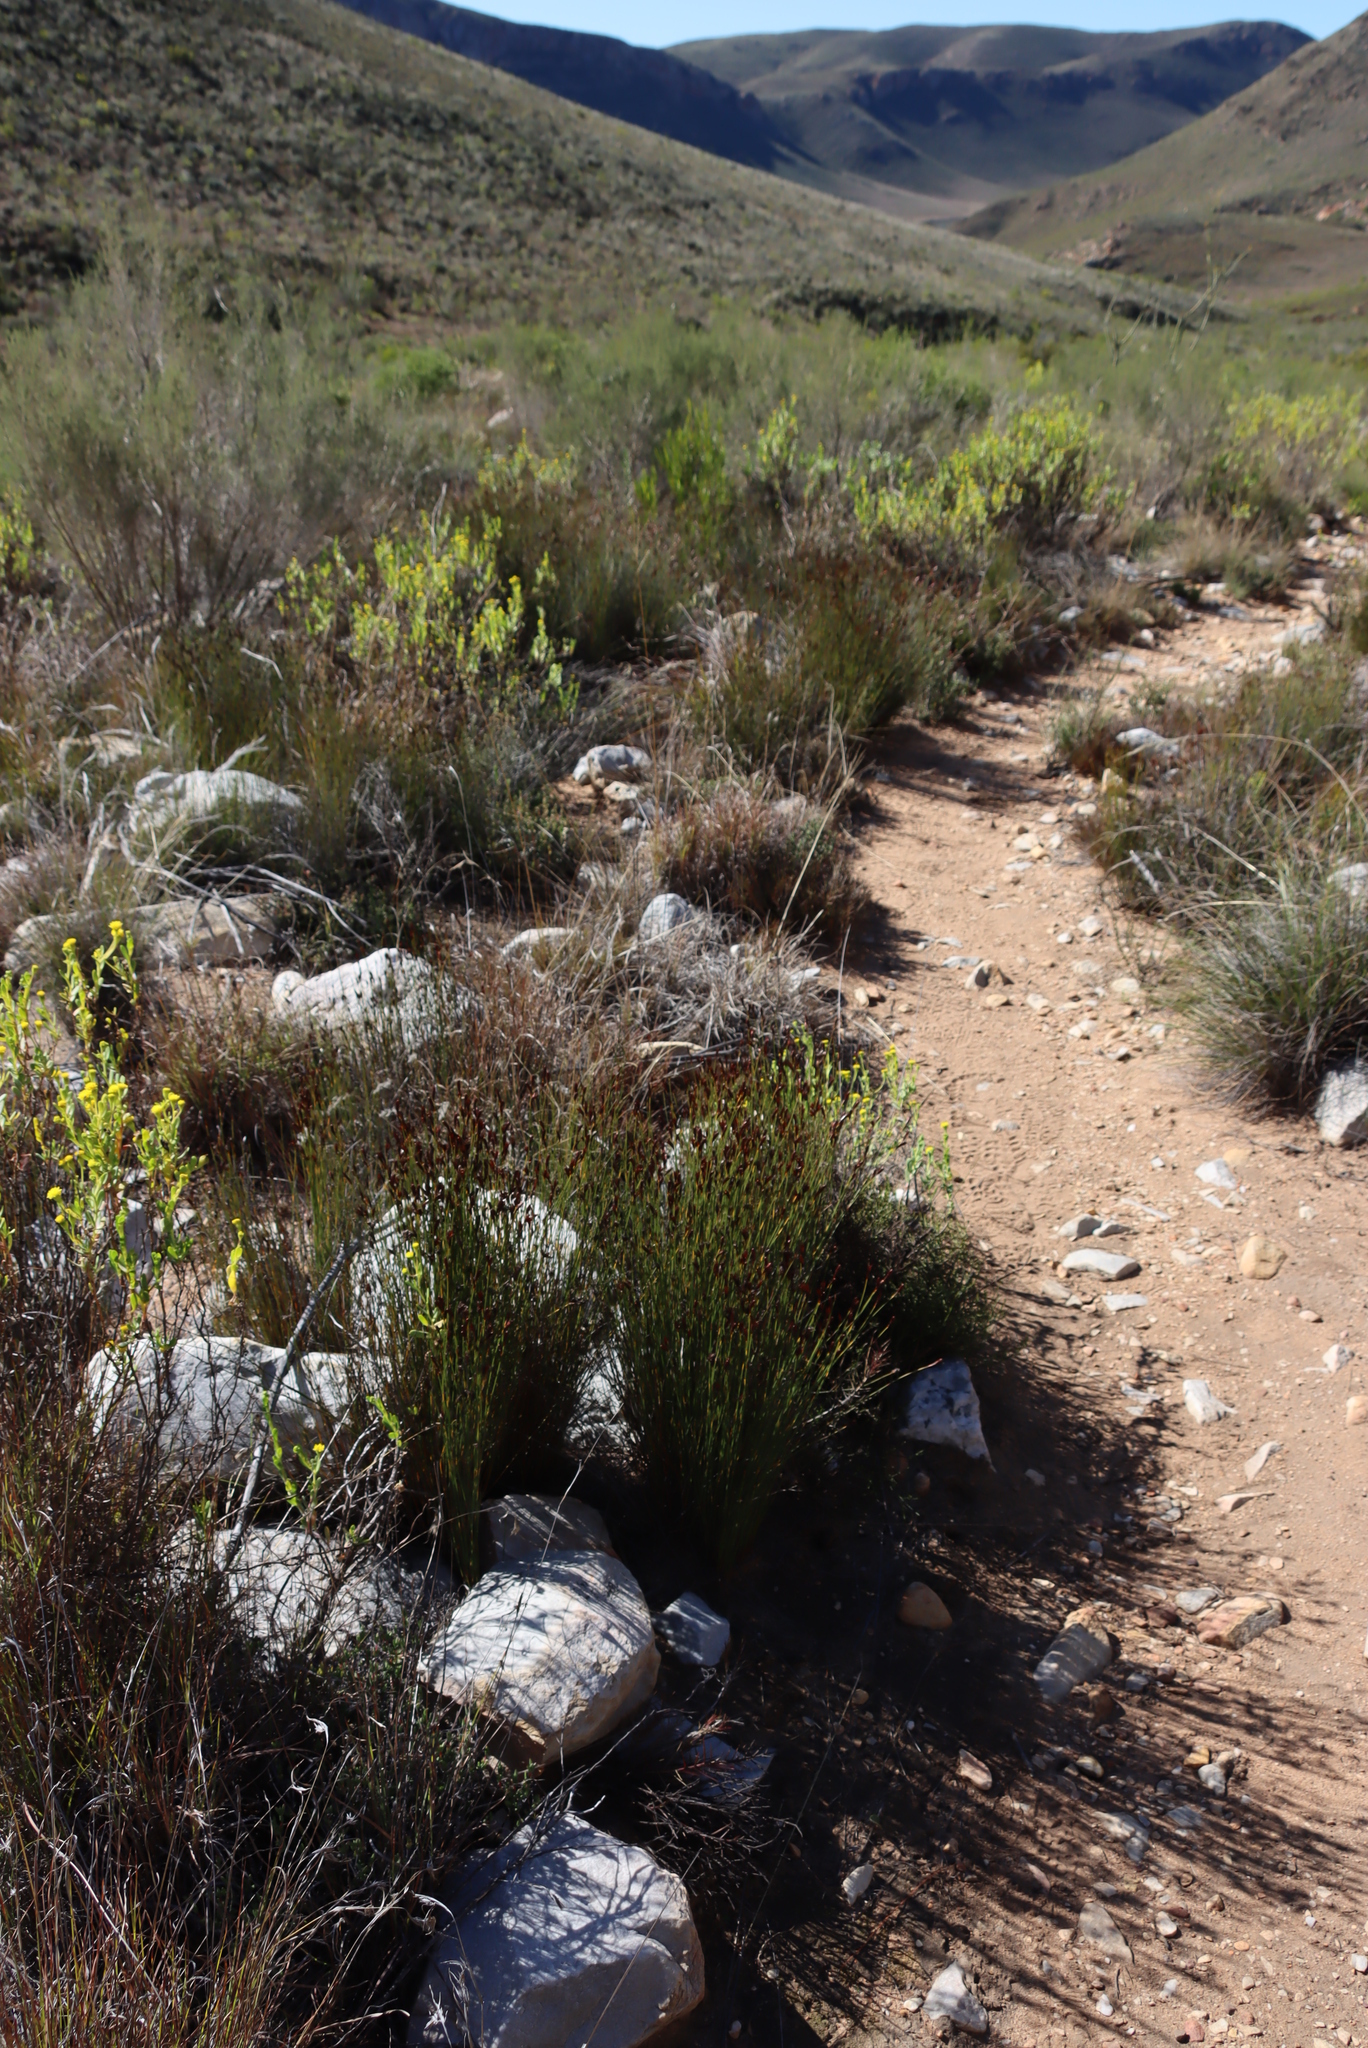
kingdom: Plantae
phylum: Tracheophyta
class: Liliopsida
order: Poales
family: Restionaceae
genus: Hypodiscus
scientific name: Hypodiscus striatus
